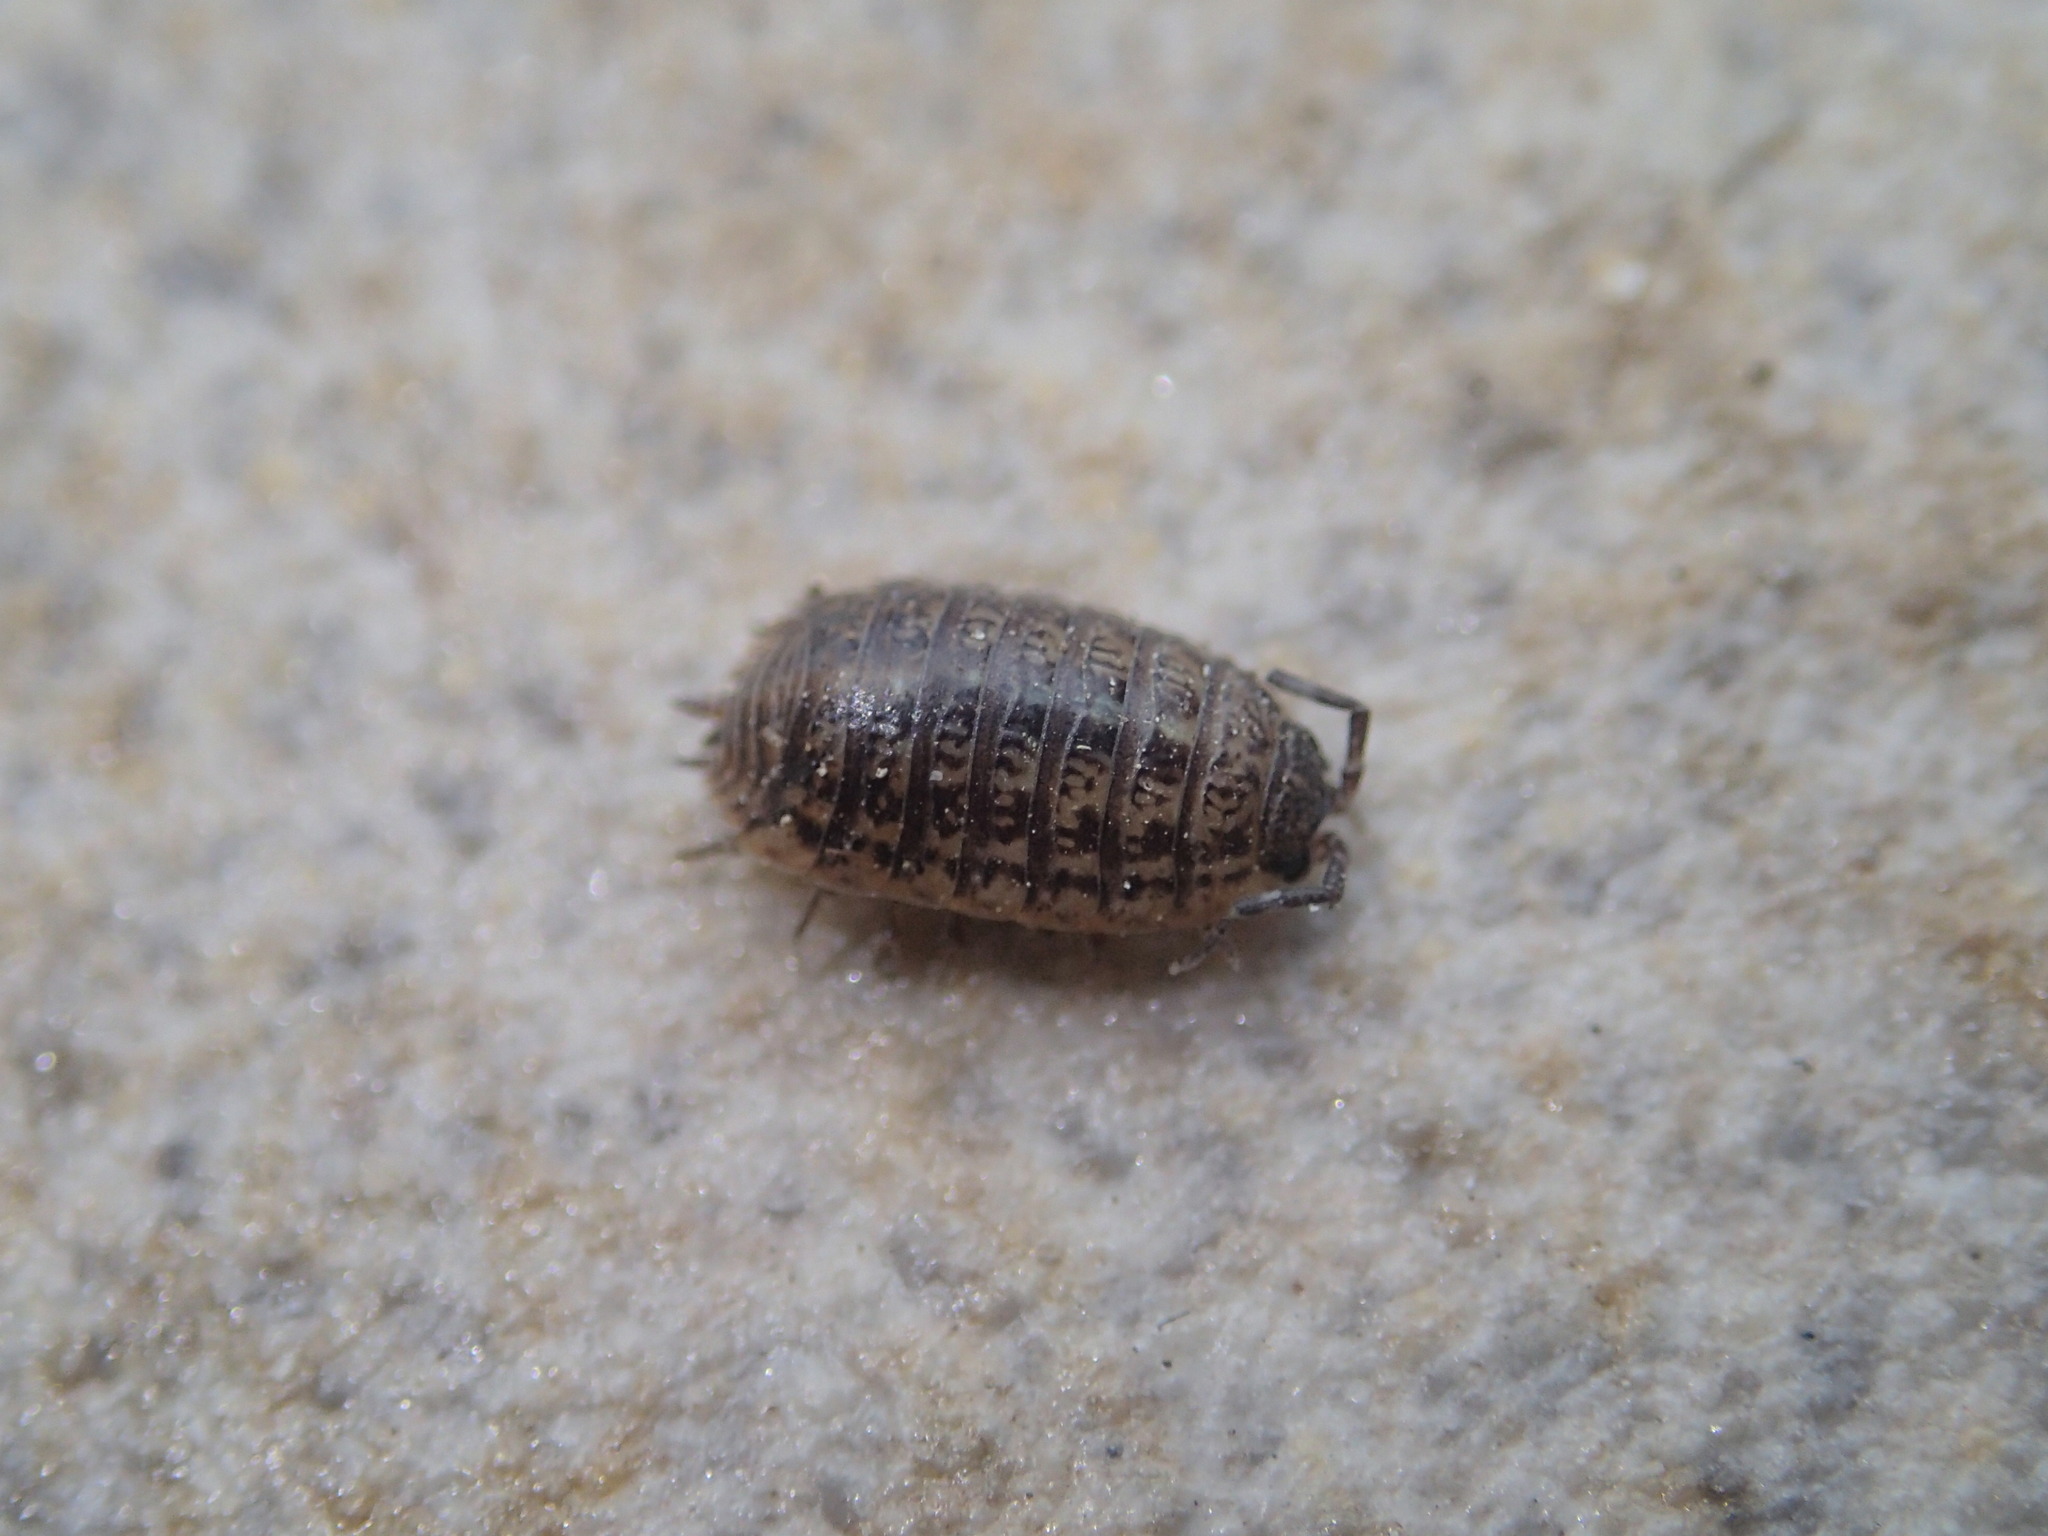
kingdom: Animalia
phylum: Arthropoda
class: Malacostraca
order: Isopoda
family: Trachelipodidae
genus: Trachelipus
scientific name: Trachelipus razzautii
